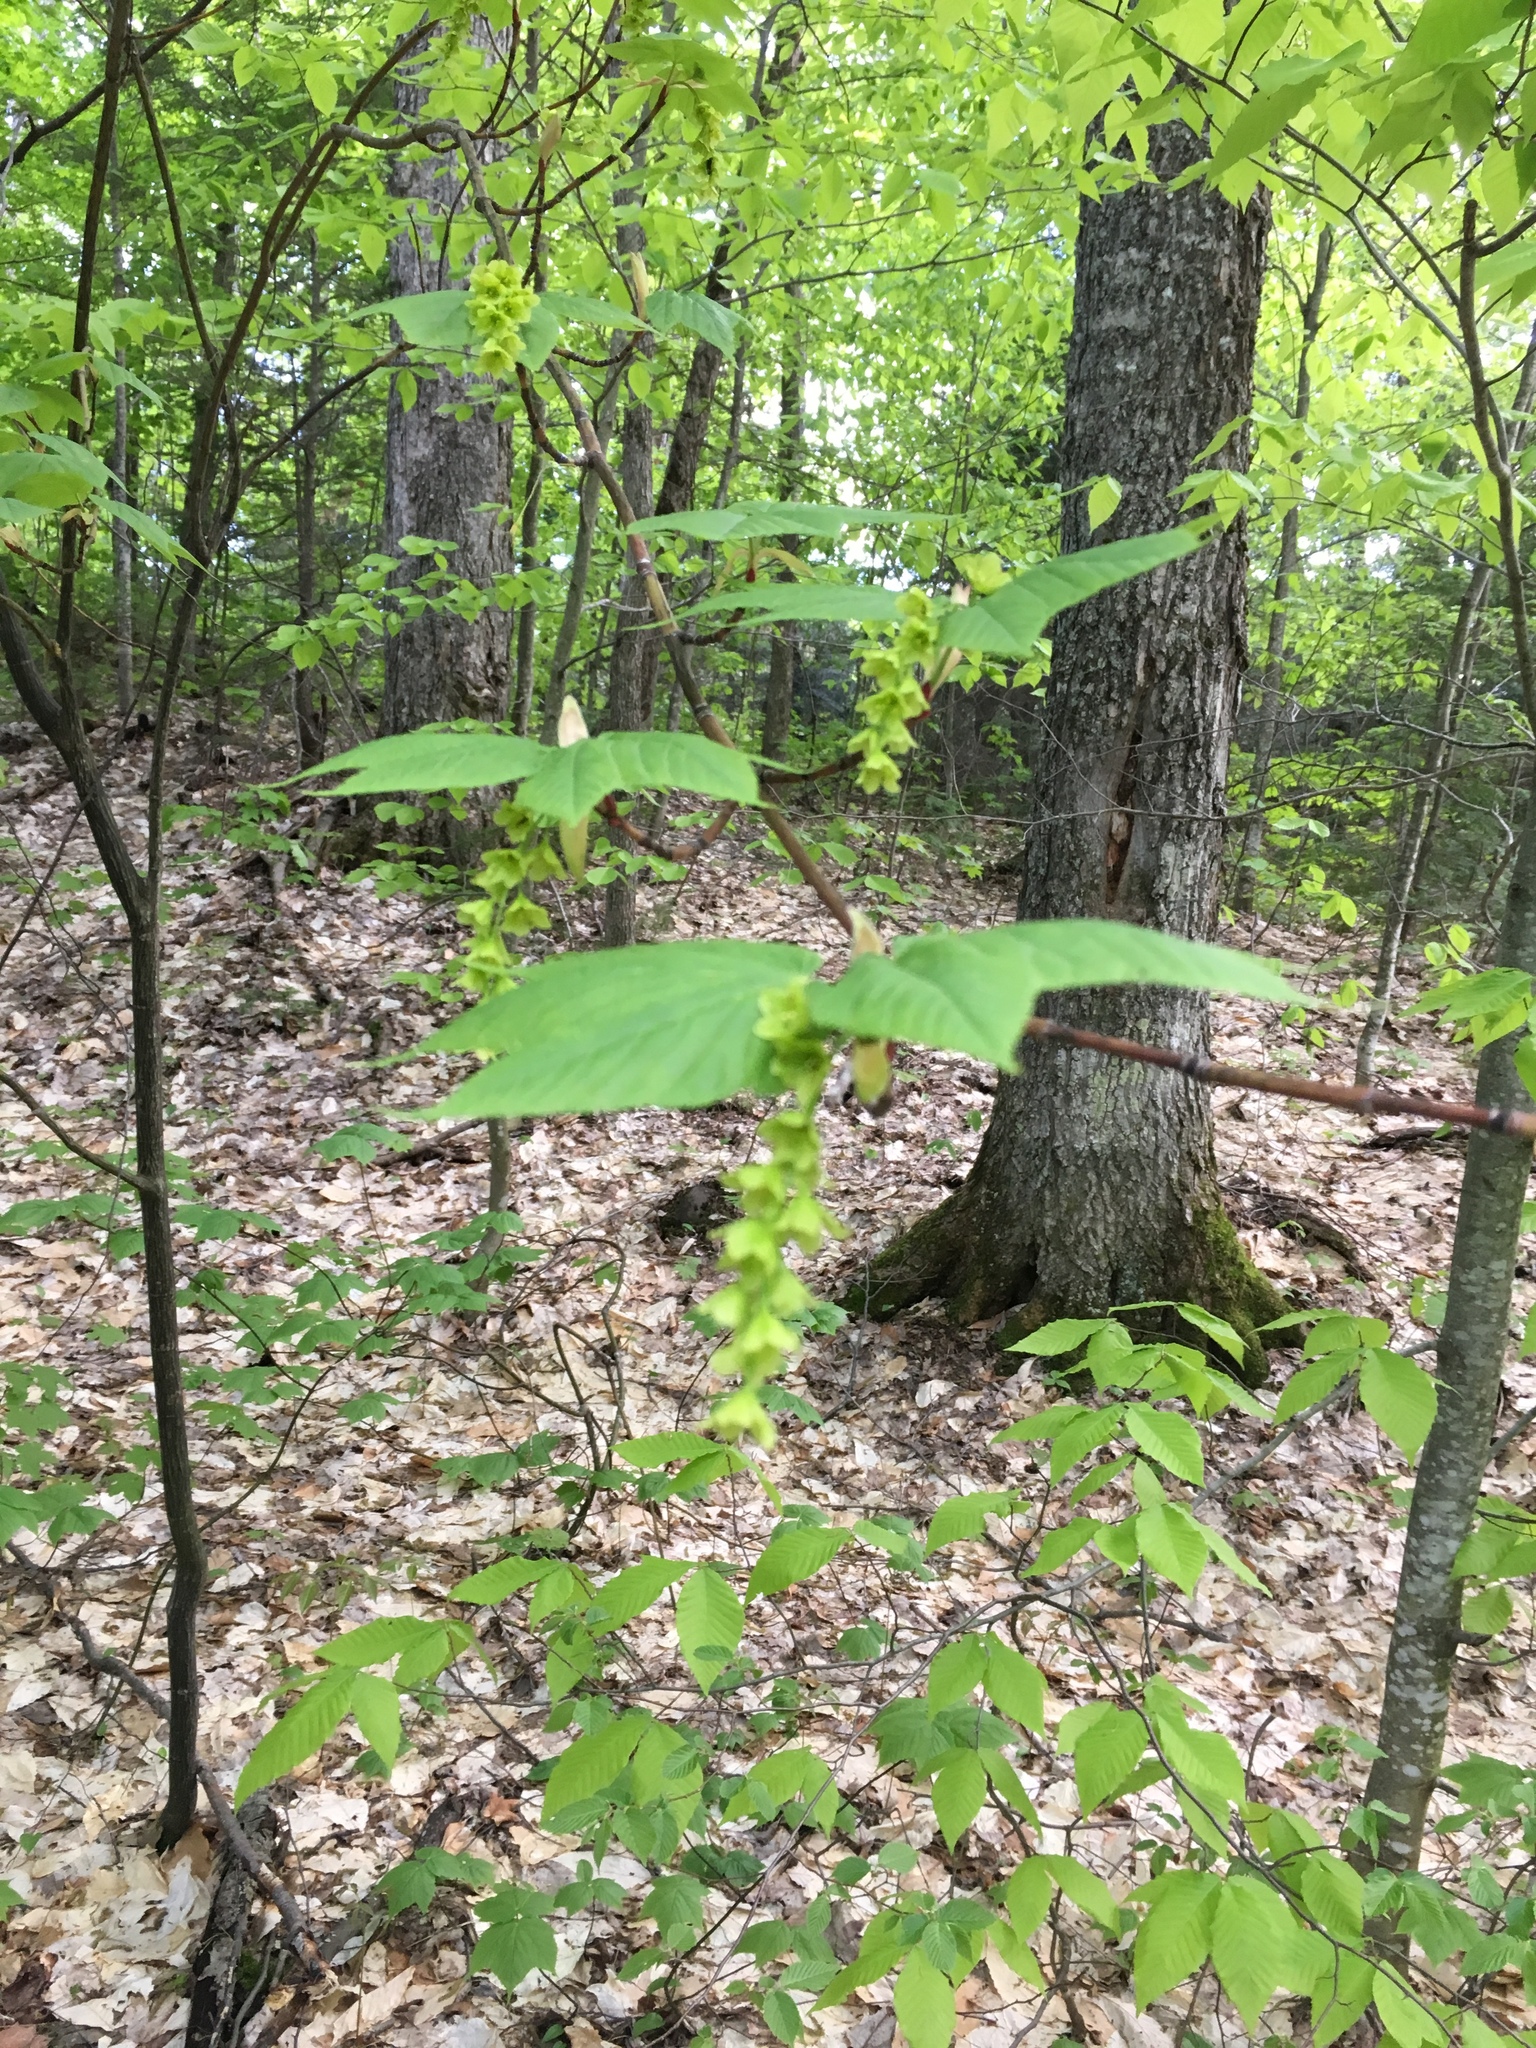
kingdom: Plantae
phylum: Tracheophyta
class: Magnoliopsida
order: Sapindales
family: Sapindaceae
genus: Acer
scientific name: Acer pensylvanicum
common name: Moosewood
